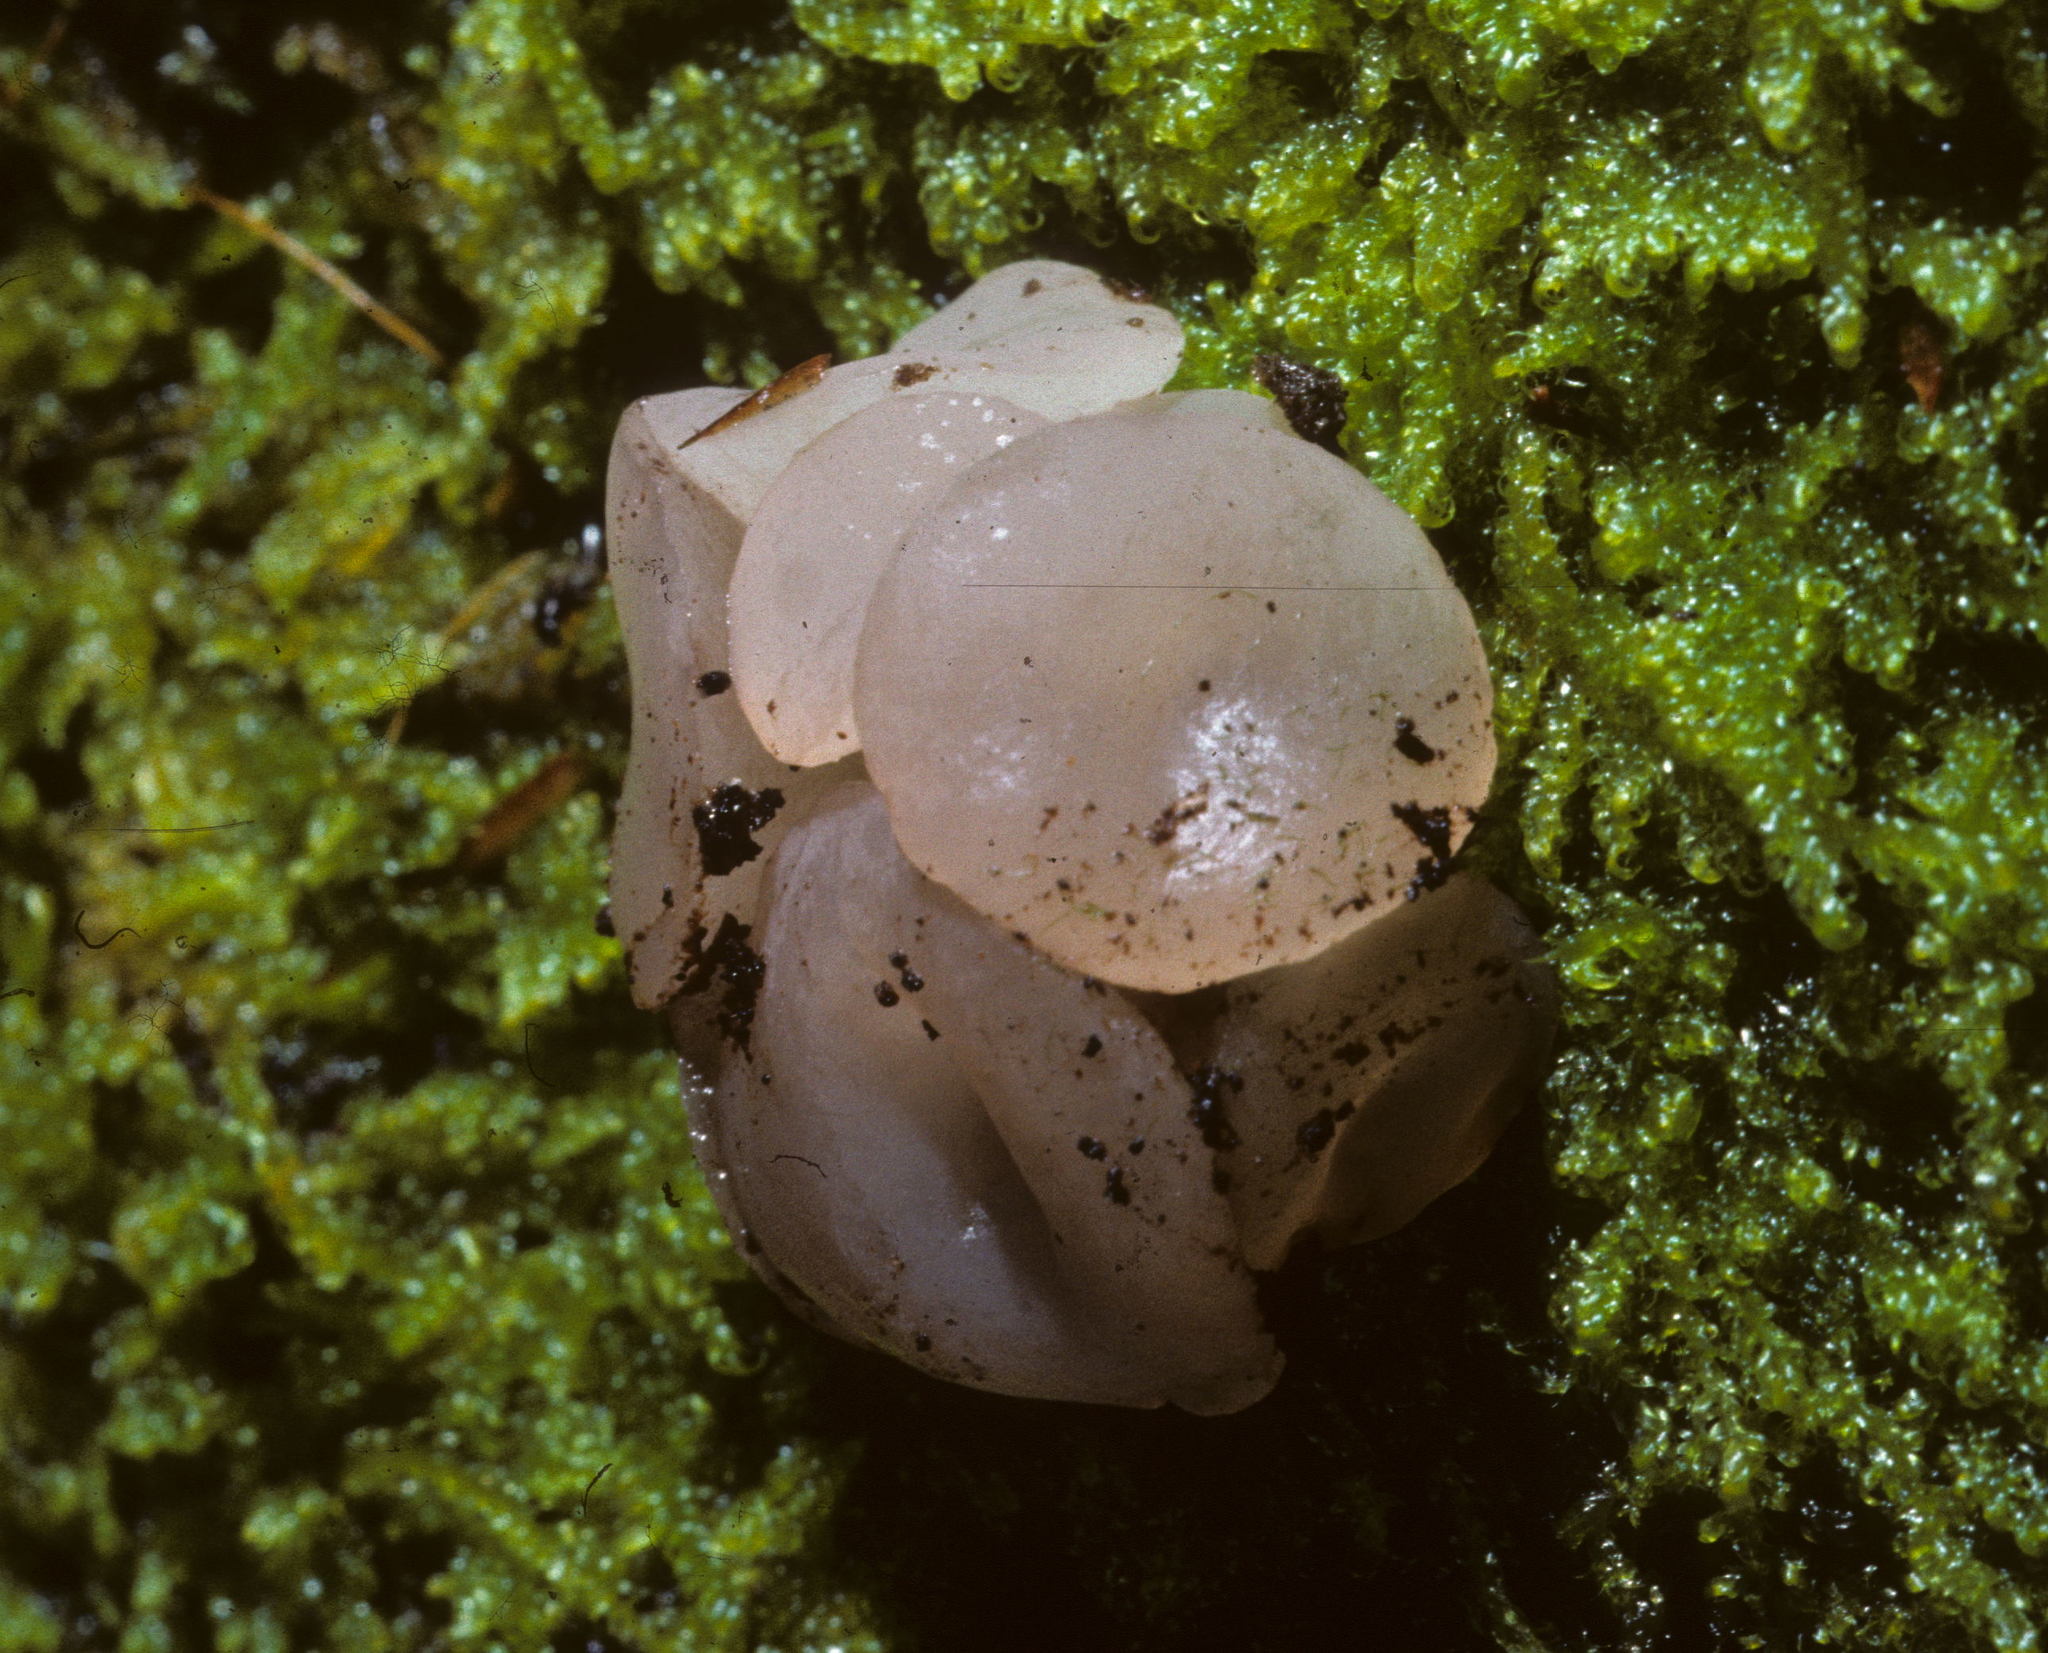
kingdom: Fungi
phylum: Ascomycota
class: Leotiomycetes
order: Helotiales
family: Gelatinodiscaceae
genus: Neobulgaria
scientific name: Neobulgaria pura
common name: Beech jelly-disc
